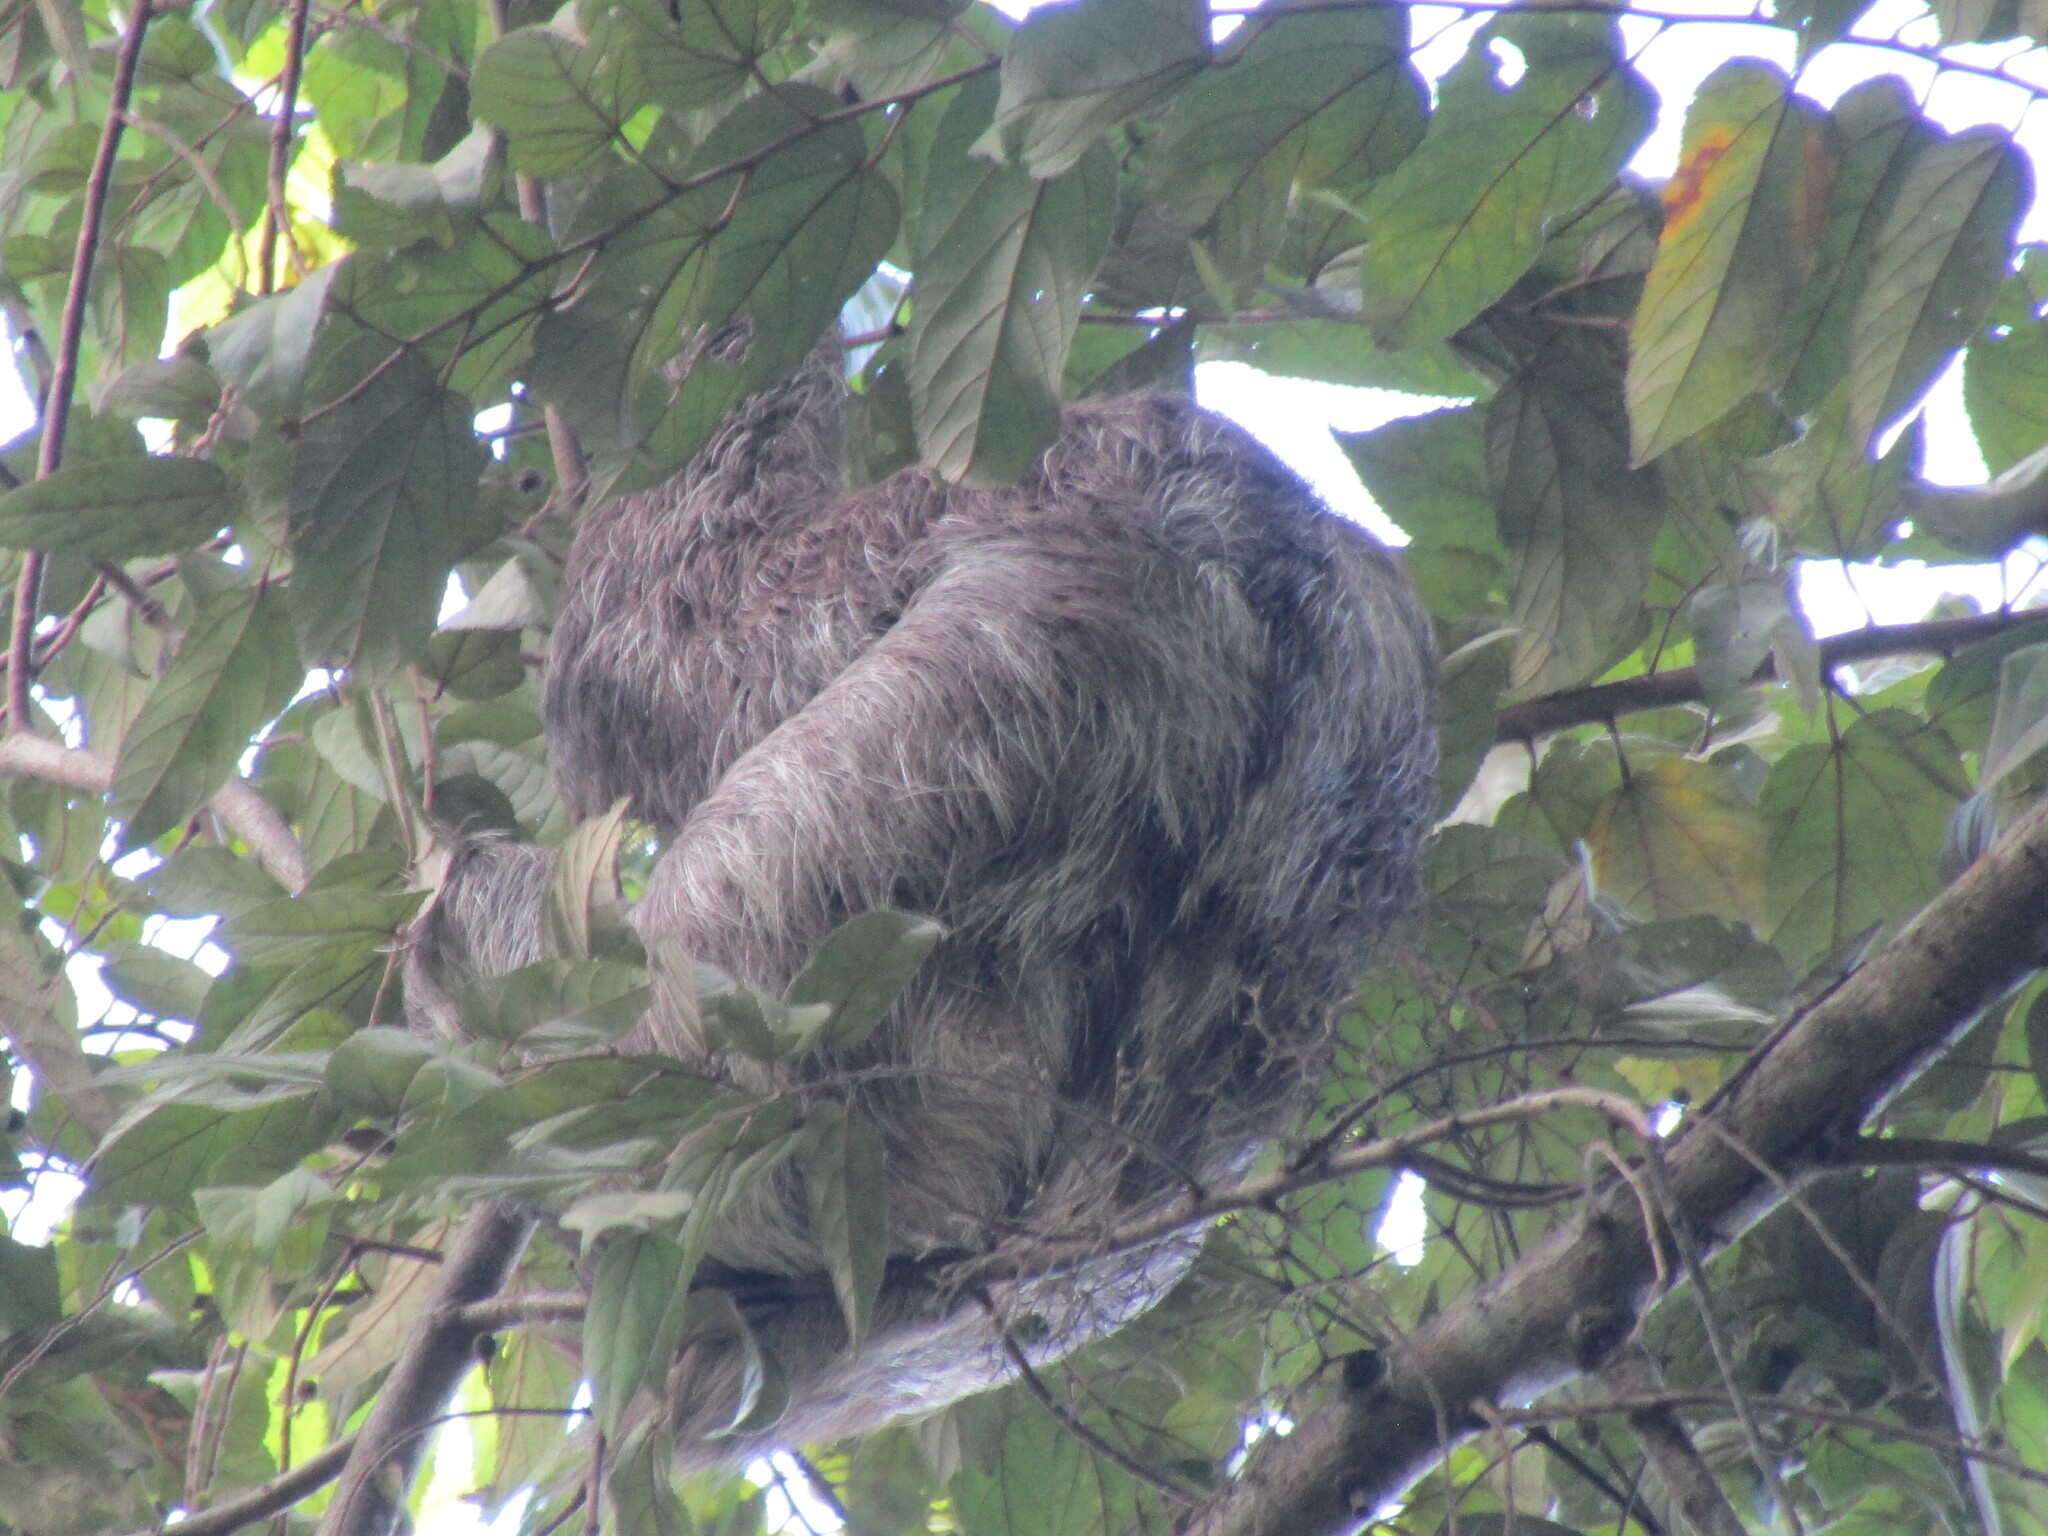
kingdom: Animalia
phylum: Chordata
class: Mammalia
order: Pilosa
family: Bradypodidae
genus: Bradypus
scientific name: Bradypus variegatus
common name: Brown-throated three-toed sloth
